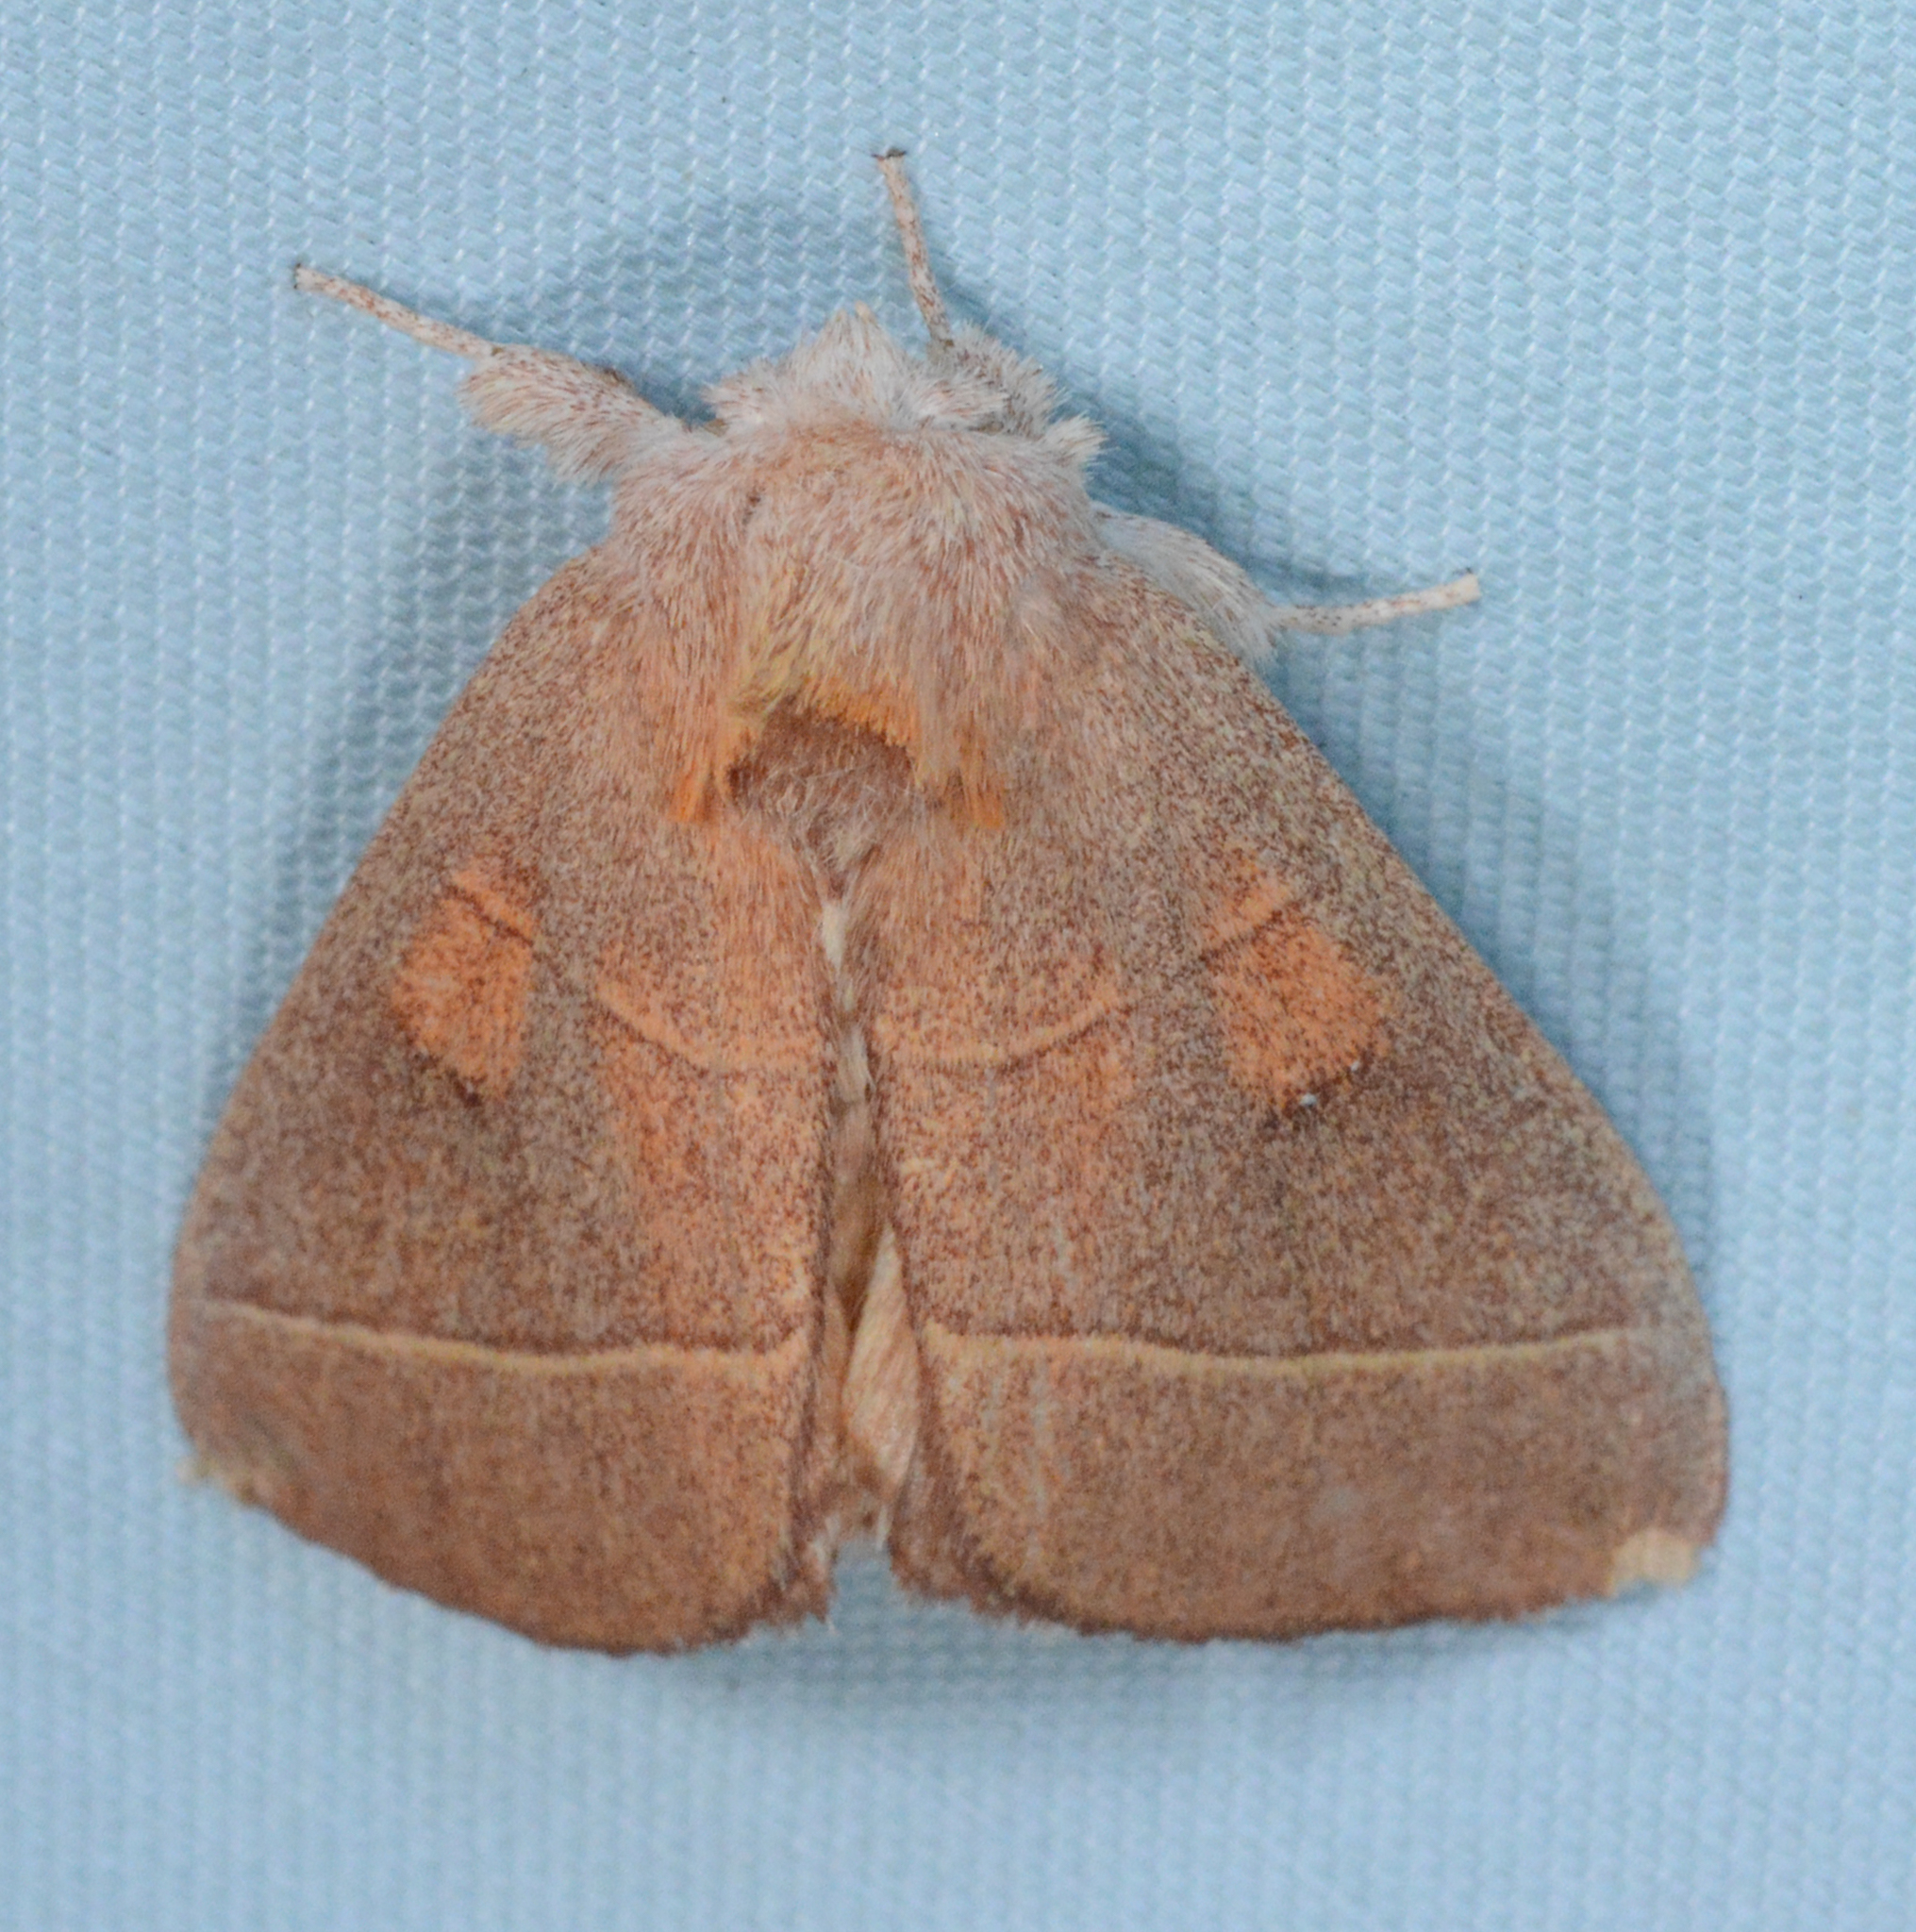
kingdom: Animalia
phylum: Arthropoda
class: Insecta
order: Lepidoptera
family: Notodontidae
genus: Nadata
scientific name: Nadata gibbosa
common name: White-dotted prominent
